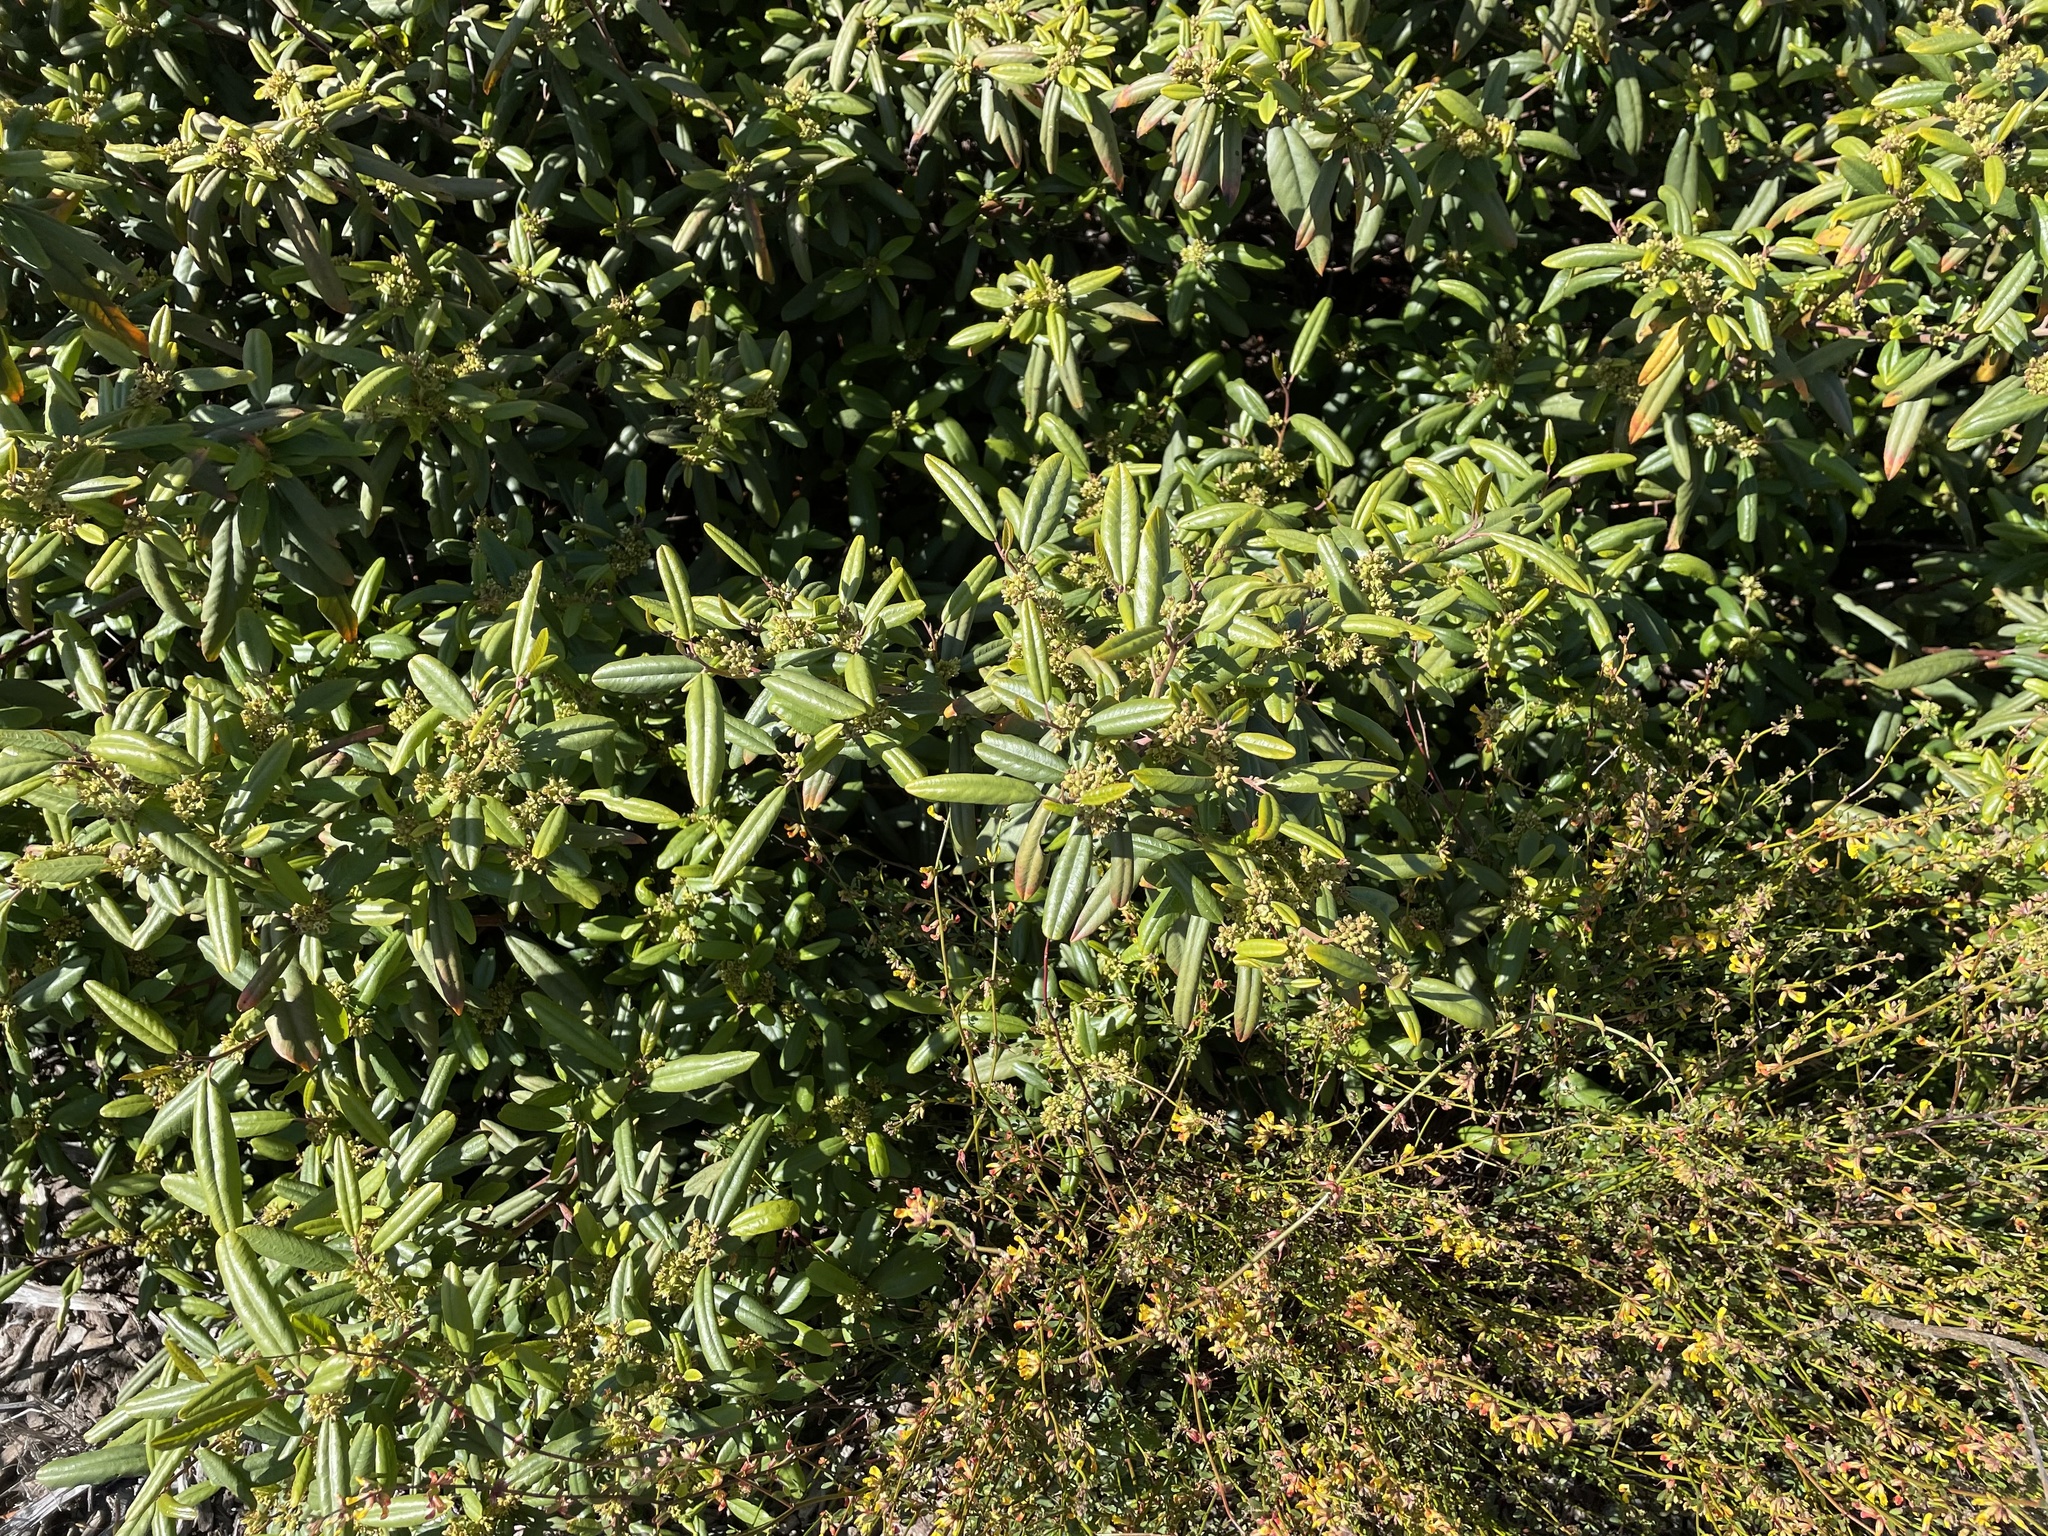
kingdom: Plantae
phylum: Tracheophyta
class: Magnoliopsida
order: Rosales
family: Rhamnaceae
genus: Frangula
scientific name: Frangula californica
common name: California buckthorn
